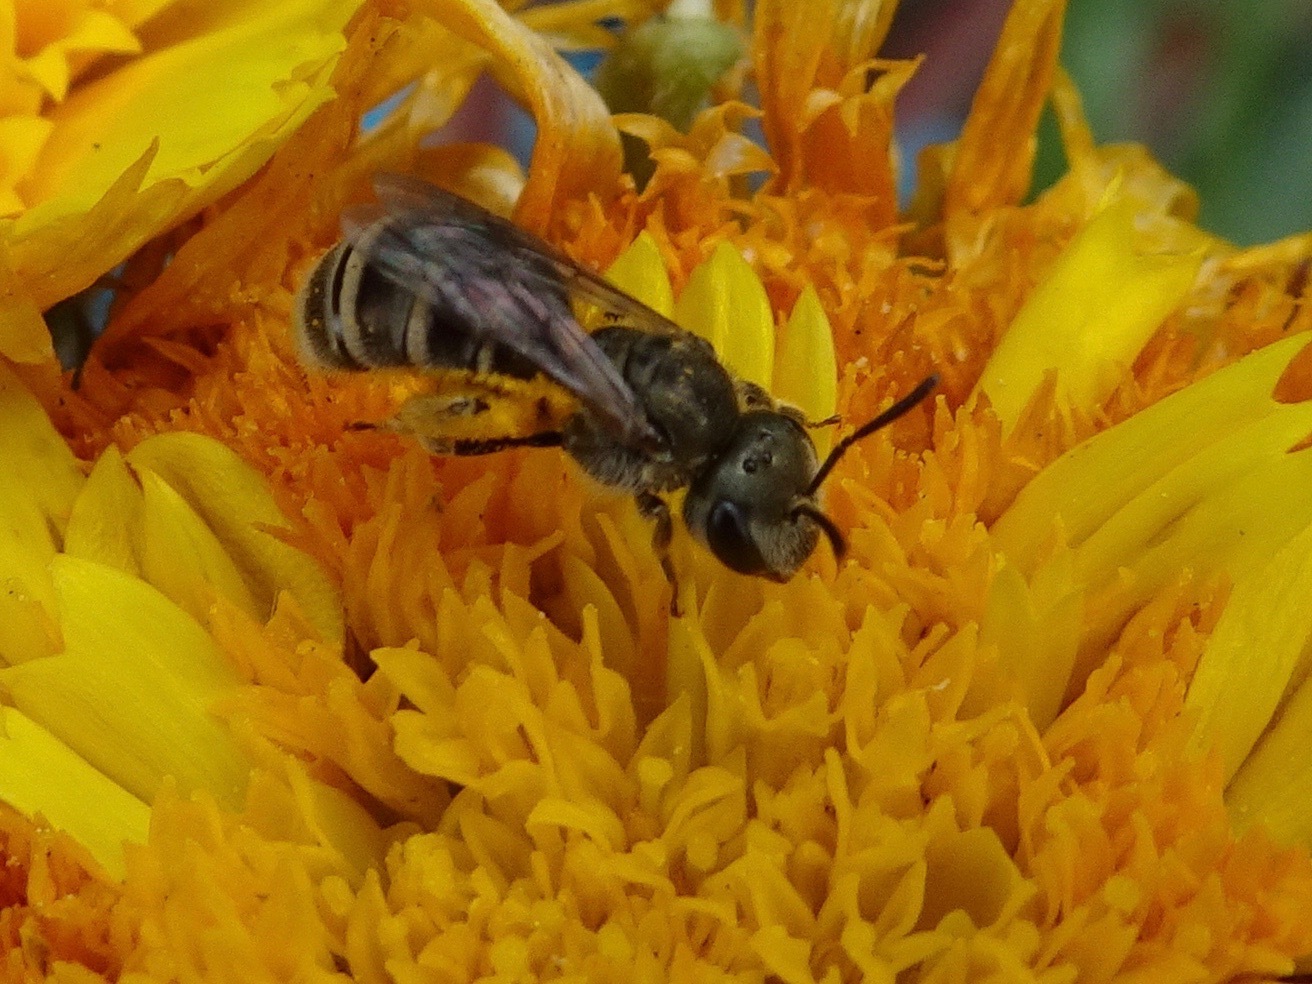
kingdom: Animalia
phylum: Arthropoda
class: Insecta
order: Hymenoptera
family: Halictidae
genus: Halictus
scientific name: Halictus tripartitus
